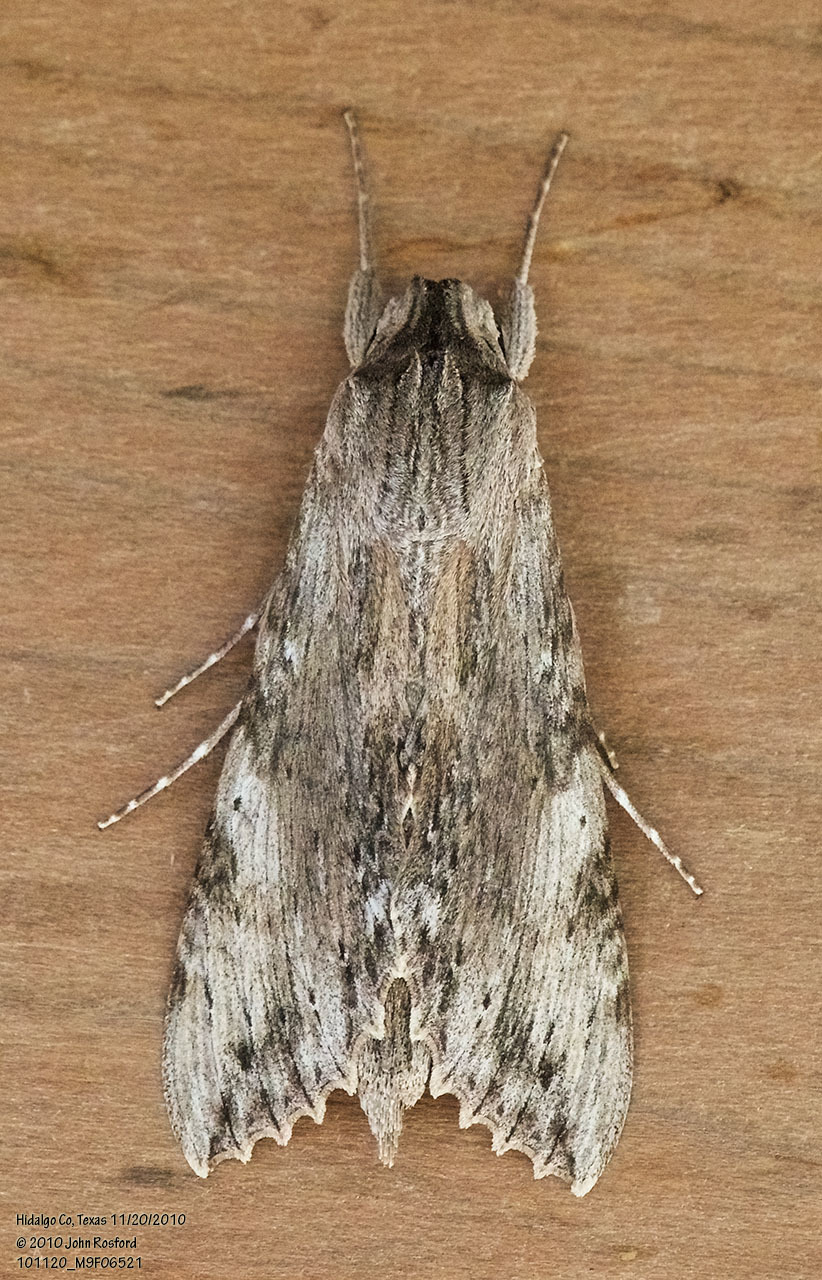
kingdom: Animalia
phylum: Arthropoda
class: Insecta
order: Lepidoptera
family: Sphingidae
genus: Erinnyis
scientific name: Erinnyis obscura
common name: Obscure sphinx
